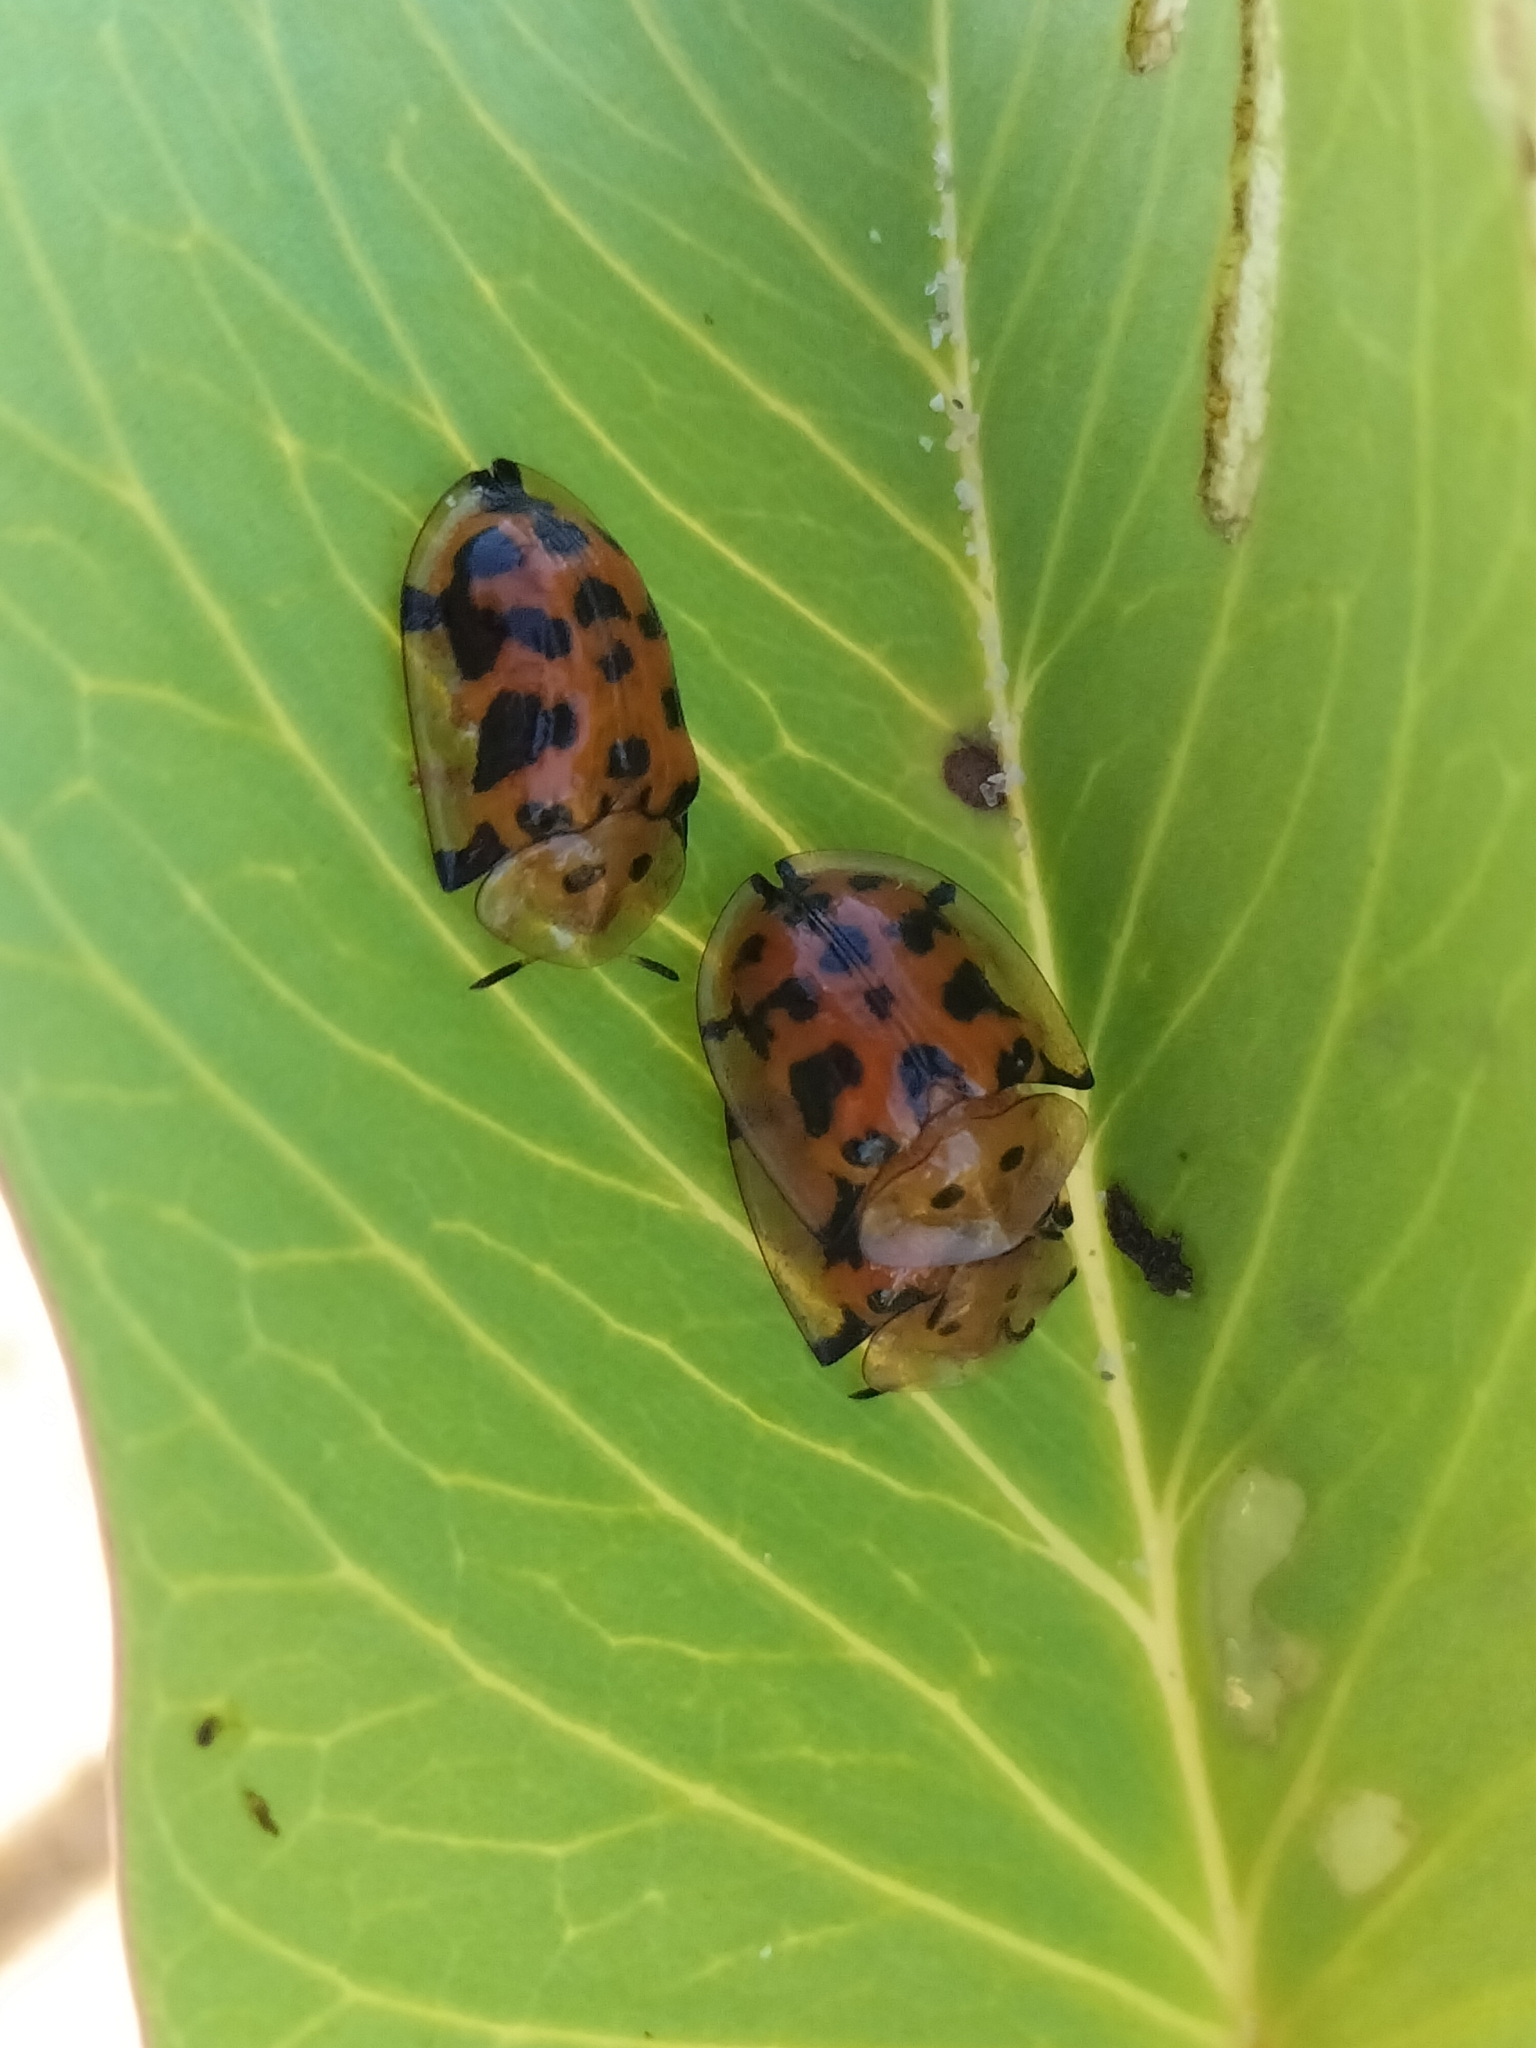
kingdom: Animalia
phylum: Arthropoda
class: Insecta
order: Coleoptera
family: Chrysomelidae
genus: Aspidimorpha
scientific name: Aspidimorpha deusta
